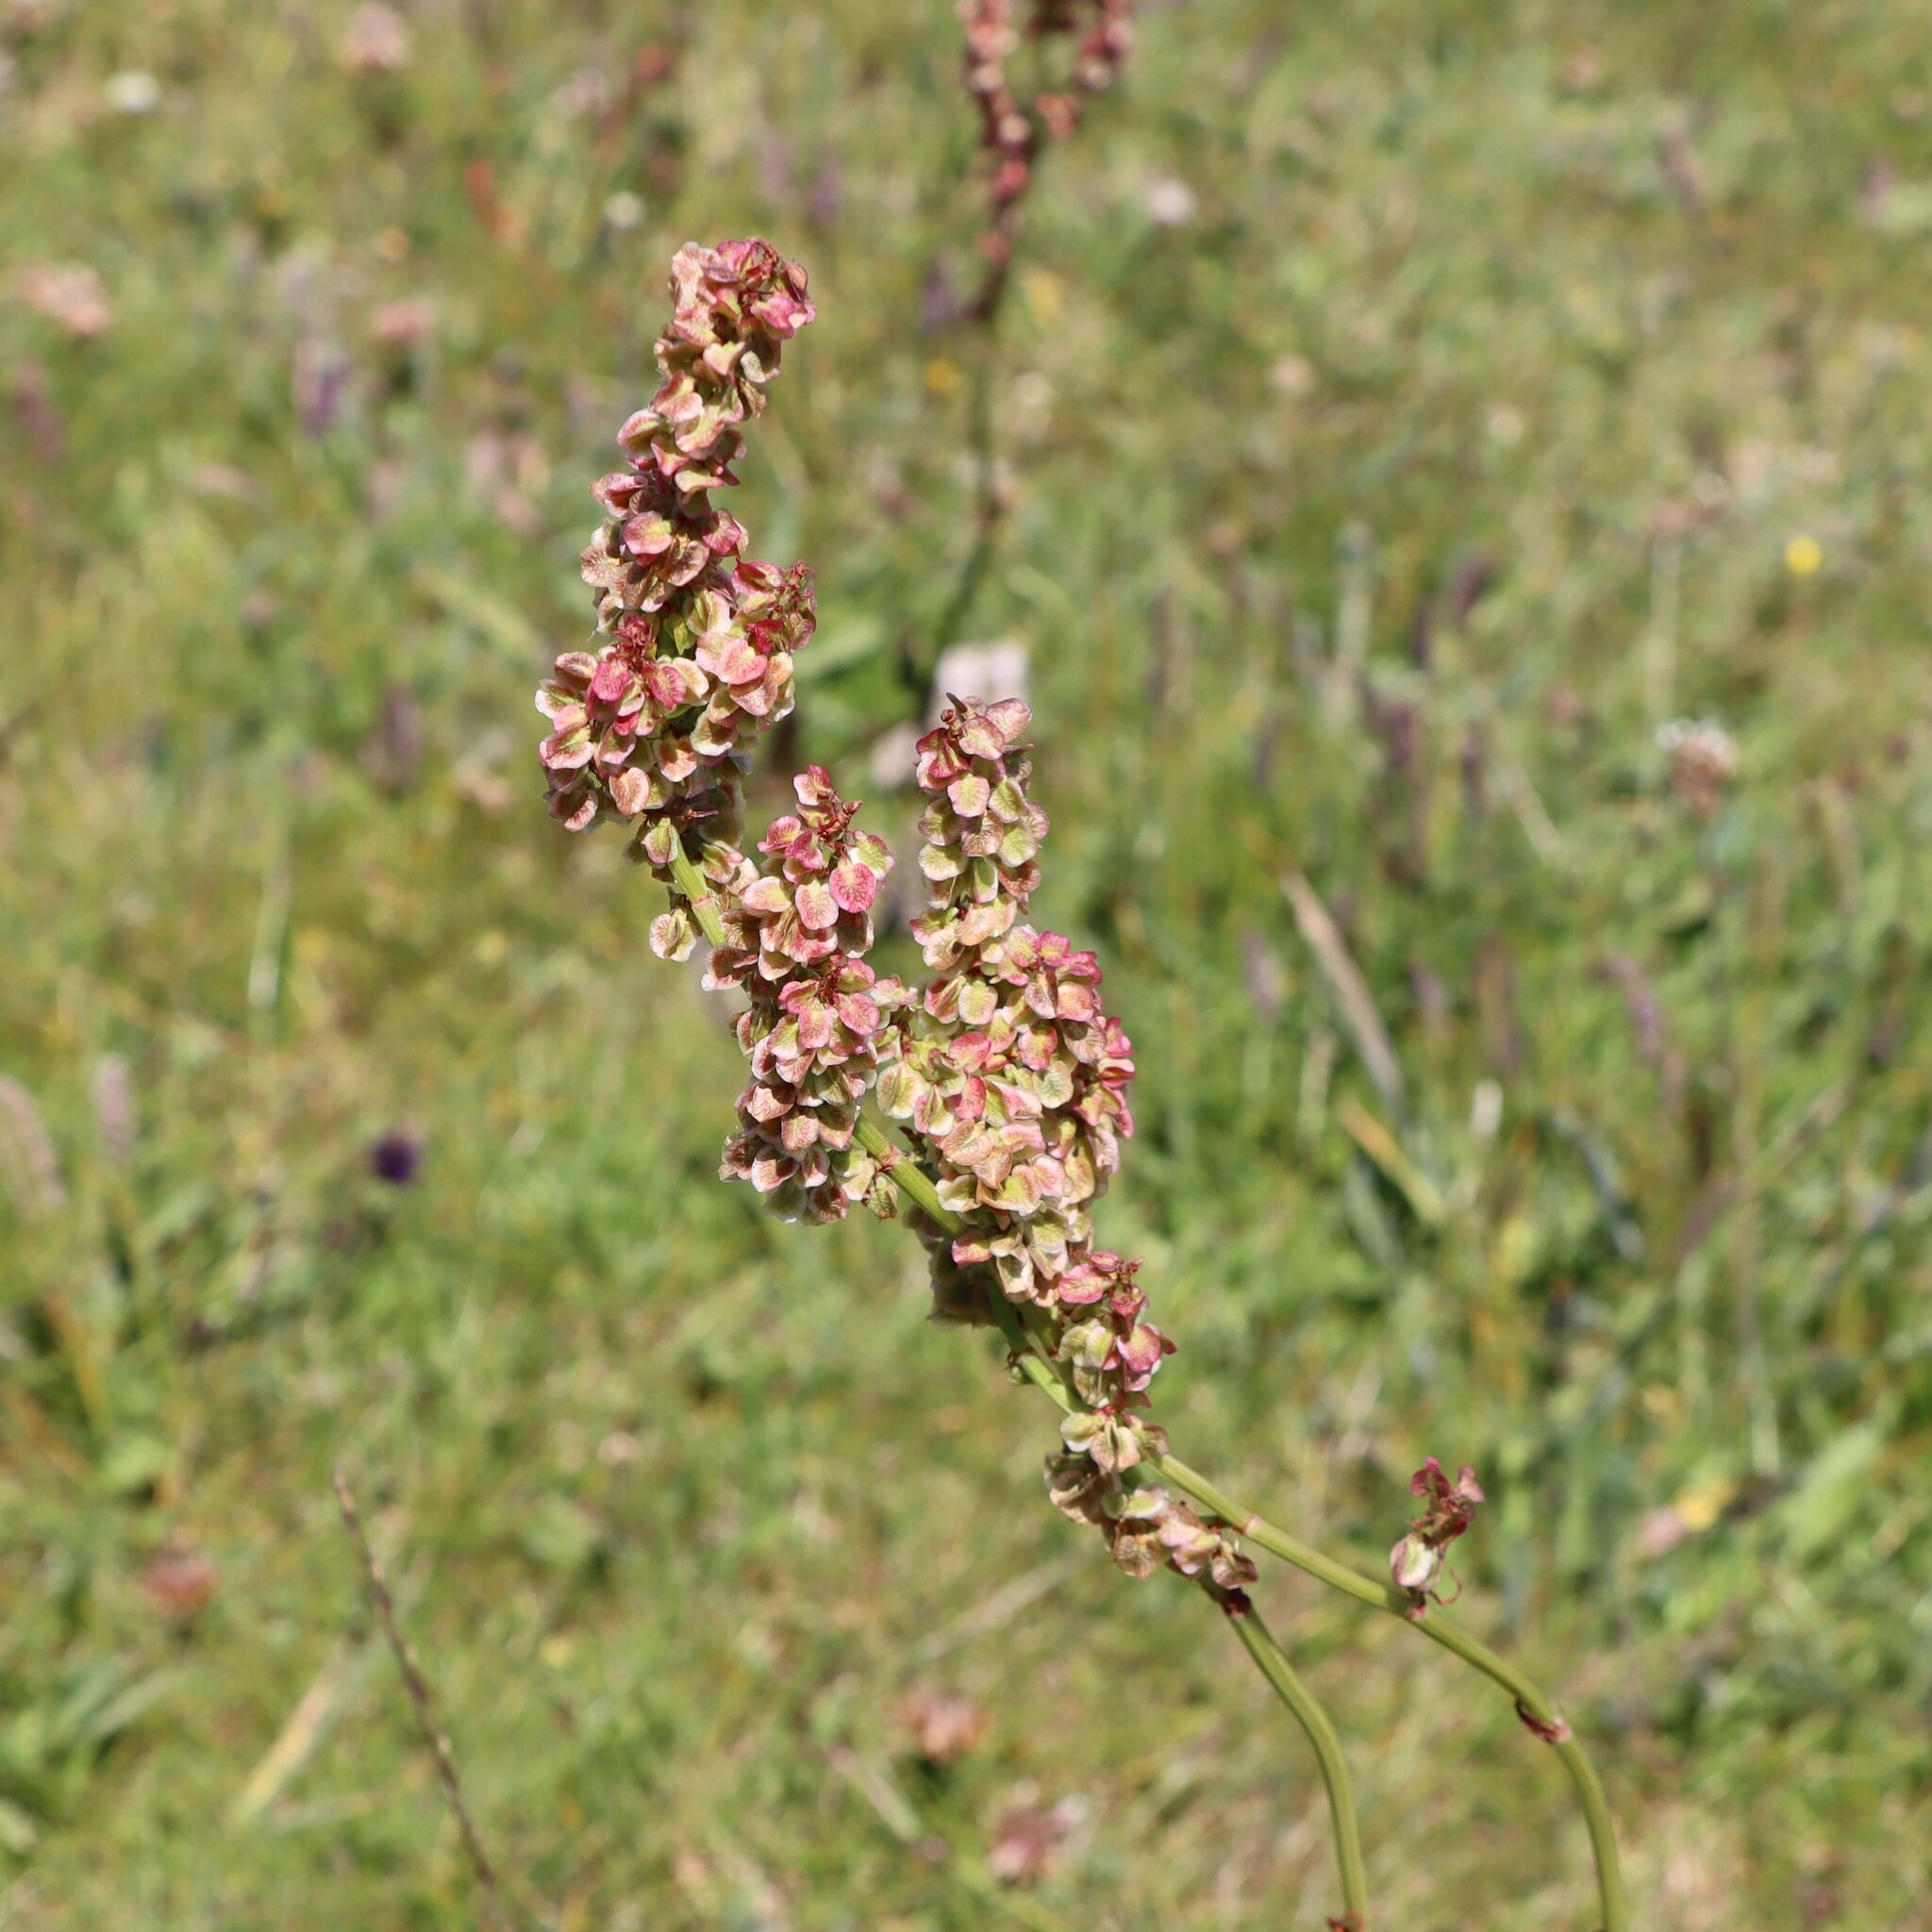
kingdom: Plantae
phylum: Tracheophyta
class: Magnoliopsida
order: Caryophyllales
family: Polygonaceae
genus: Rumex
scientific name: Rumex acetosa
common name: Garden sorrel
